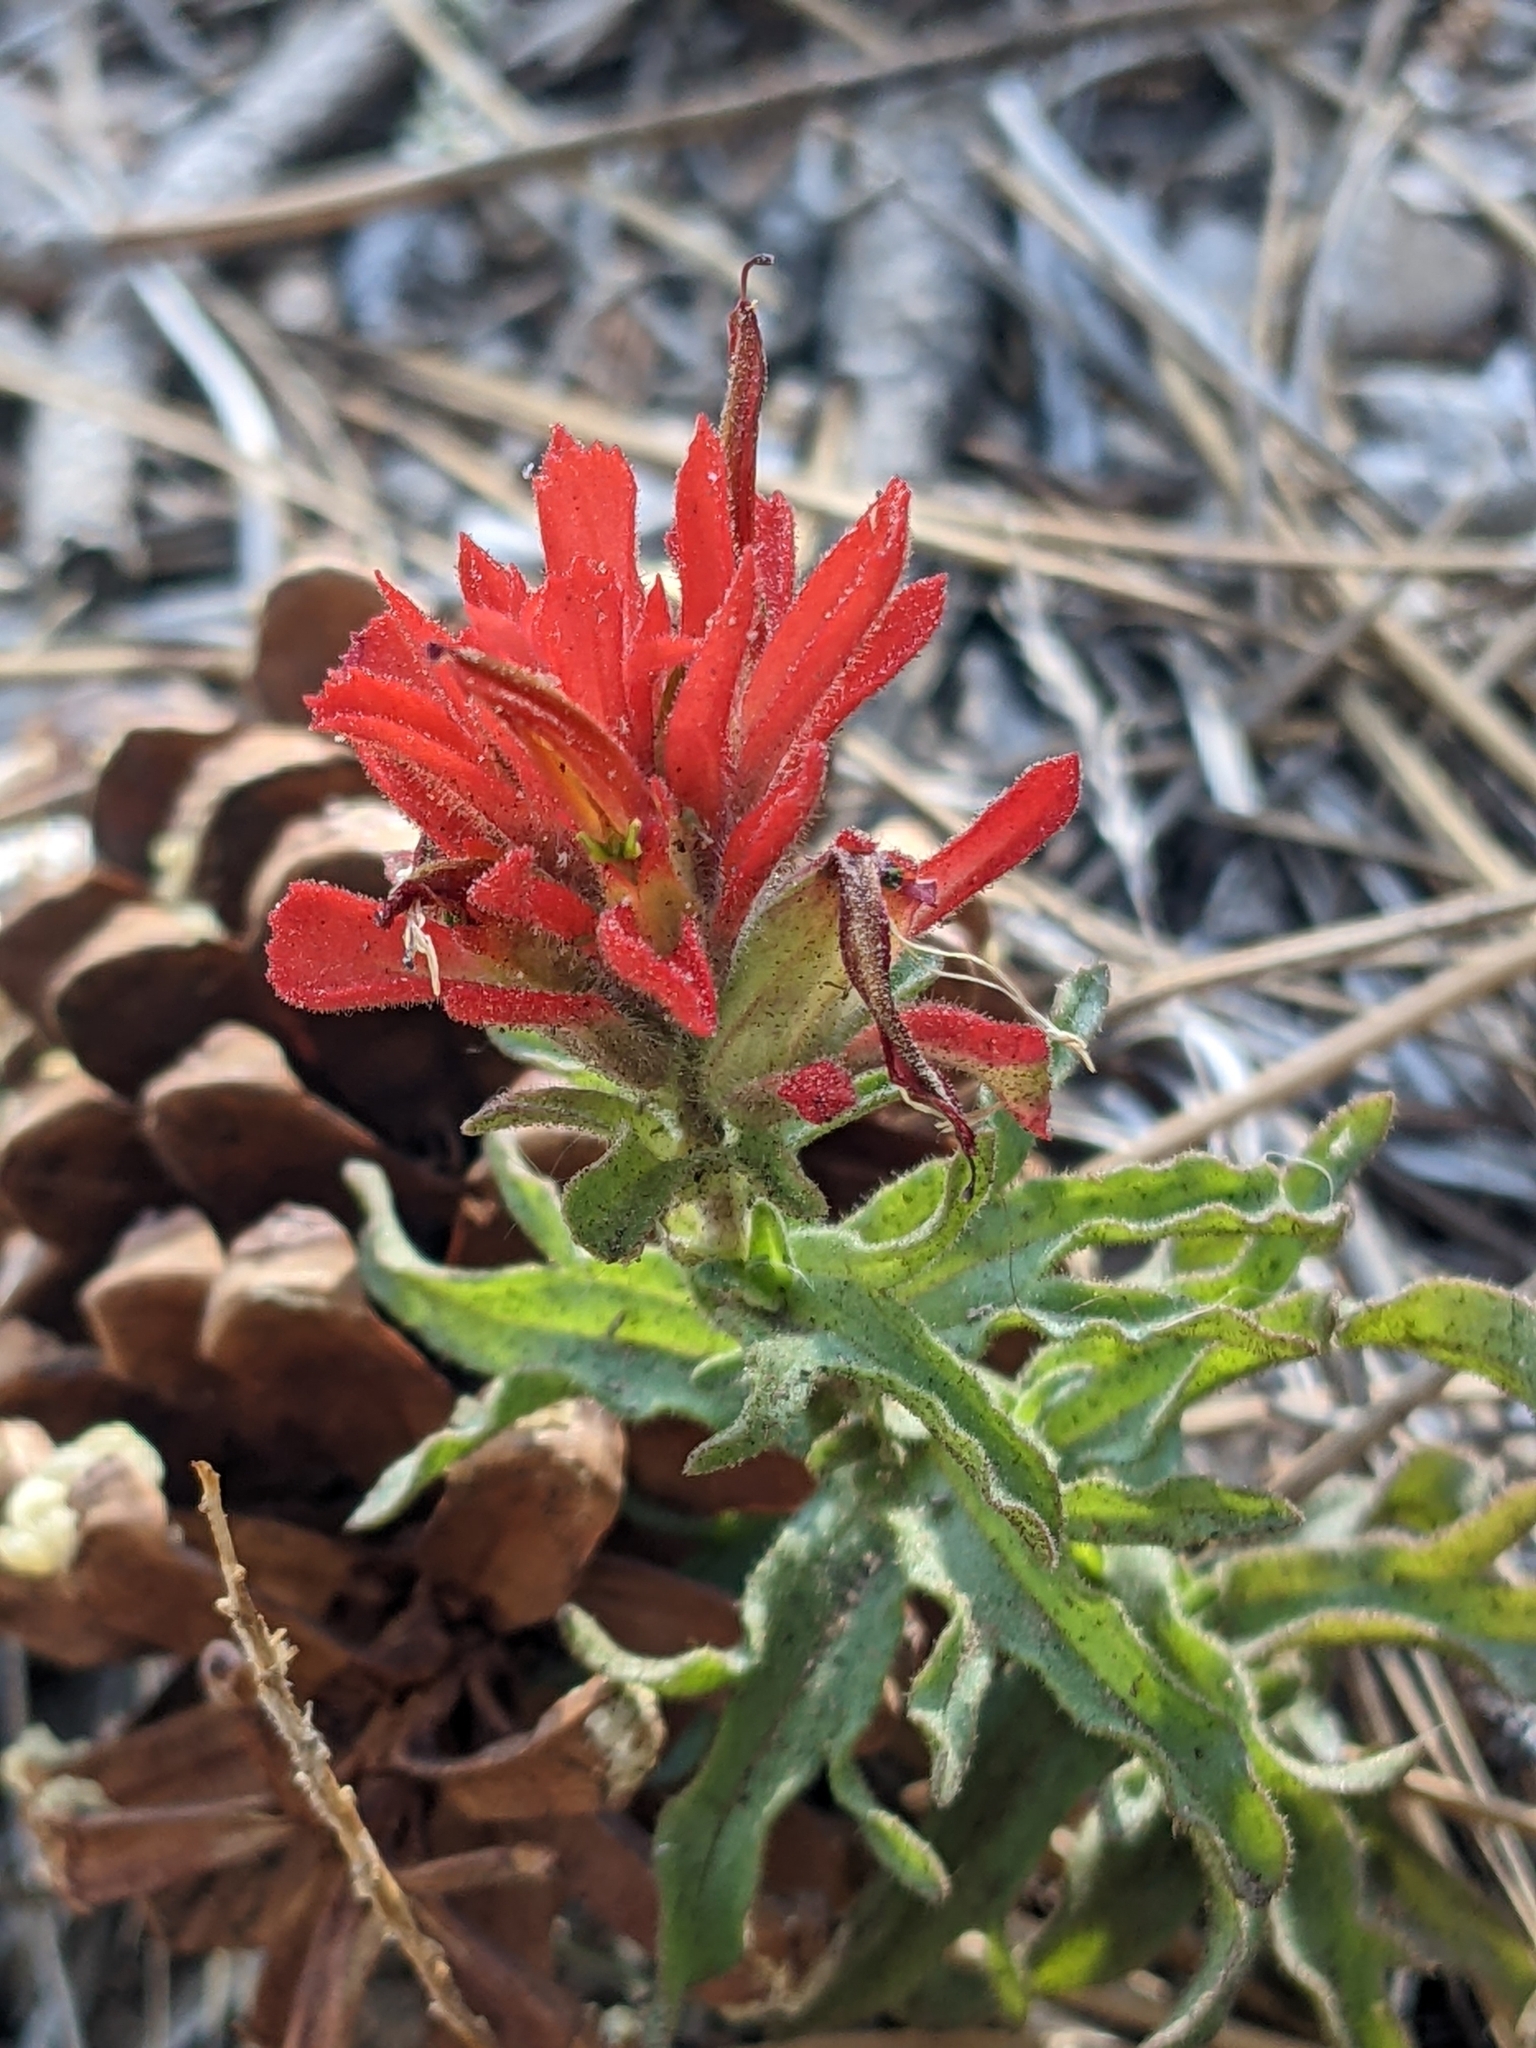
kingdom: Plantae
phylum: Tracheophyta
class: Magnoliopsida
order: Lamiales
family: Orobanchaceae
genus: Castilleja
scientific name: Castilleja martini
